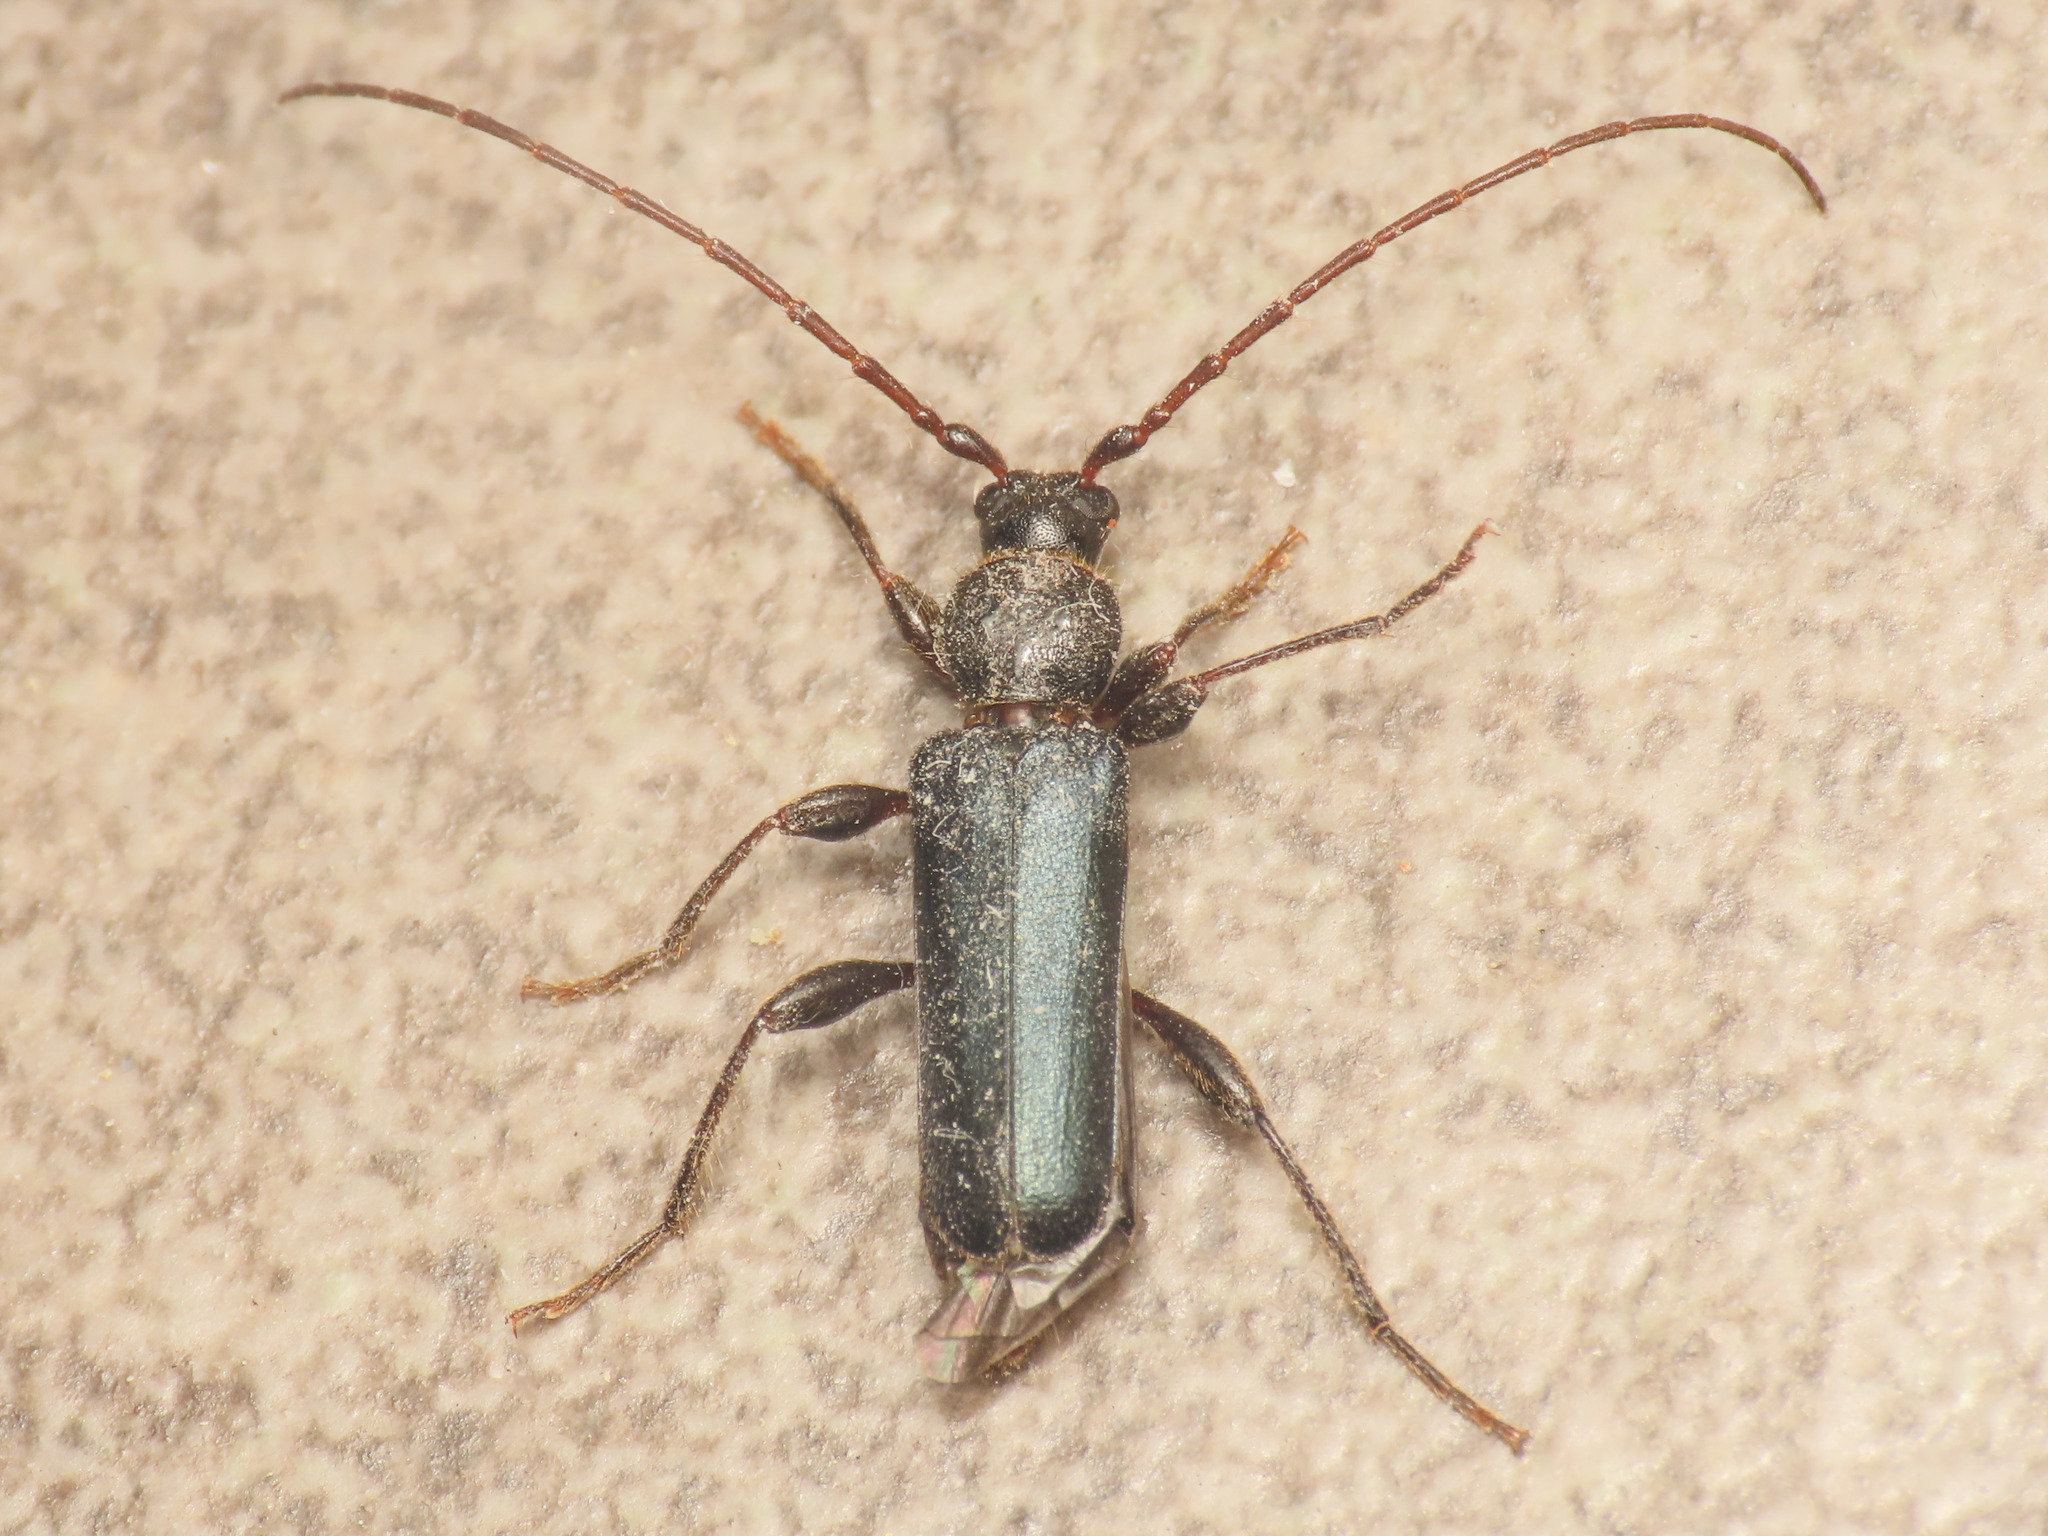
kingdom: Animalia
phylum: Arthropoda
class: Insecta
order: Coleoptera
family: Cerambycidae
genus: Phymatodes
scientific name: Phymatodes testaceus
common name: Long-horned beetle
